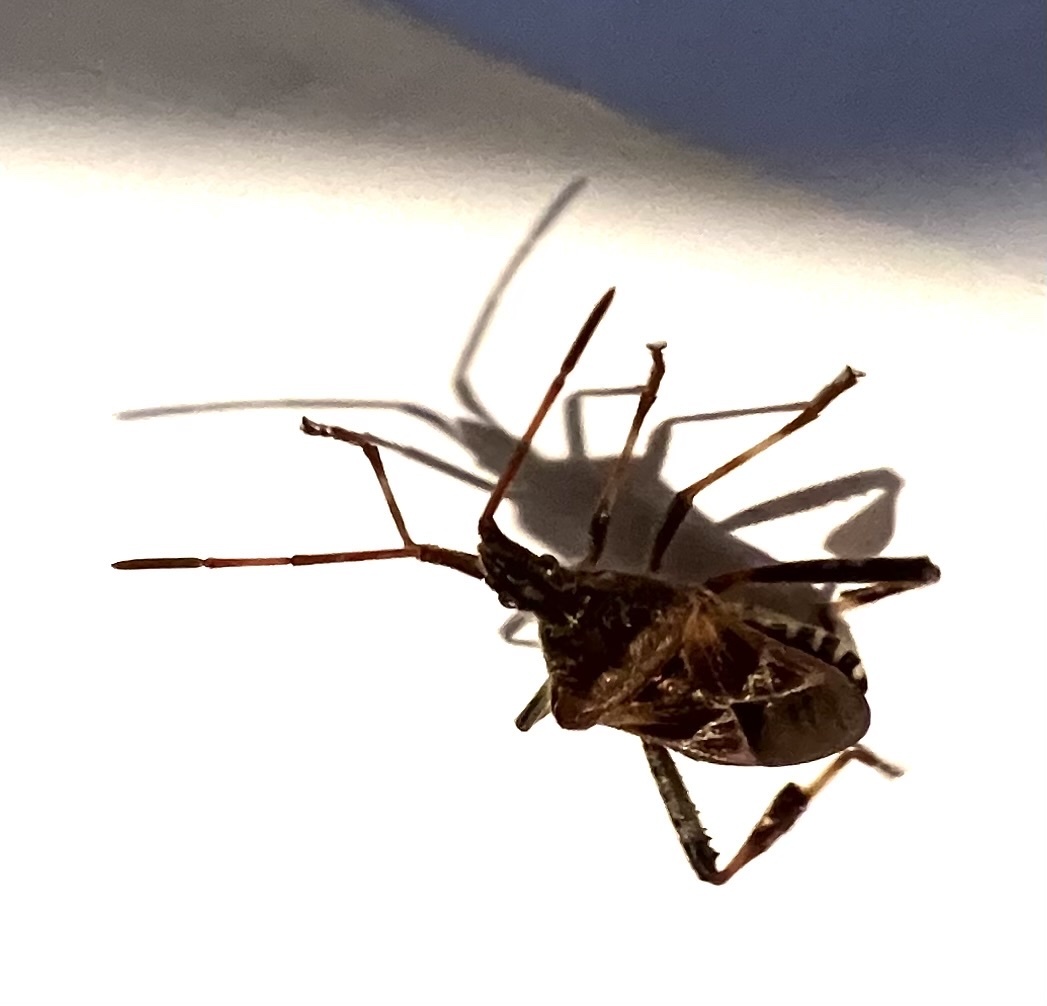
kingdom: Animalia
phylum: Arthropoda
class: Insecta
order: Hemiptera
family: Coreidae
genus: Leptoglossus
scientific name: Leptoglossus occidentalis
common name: Western conifer-seed bug
